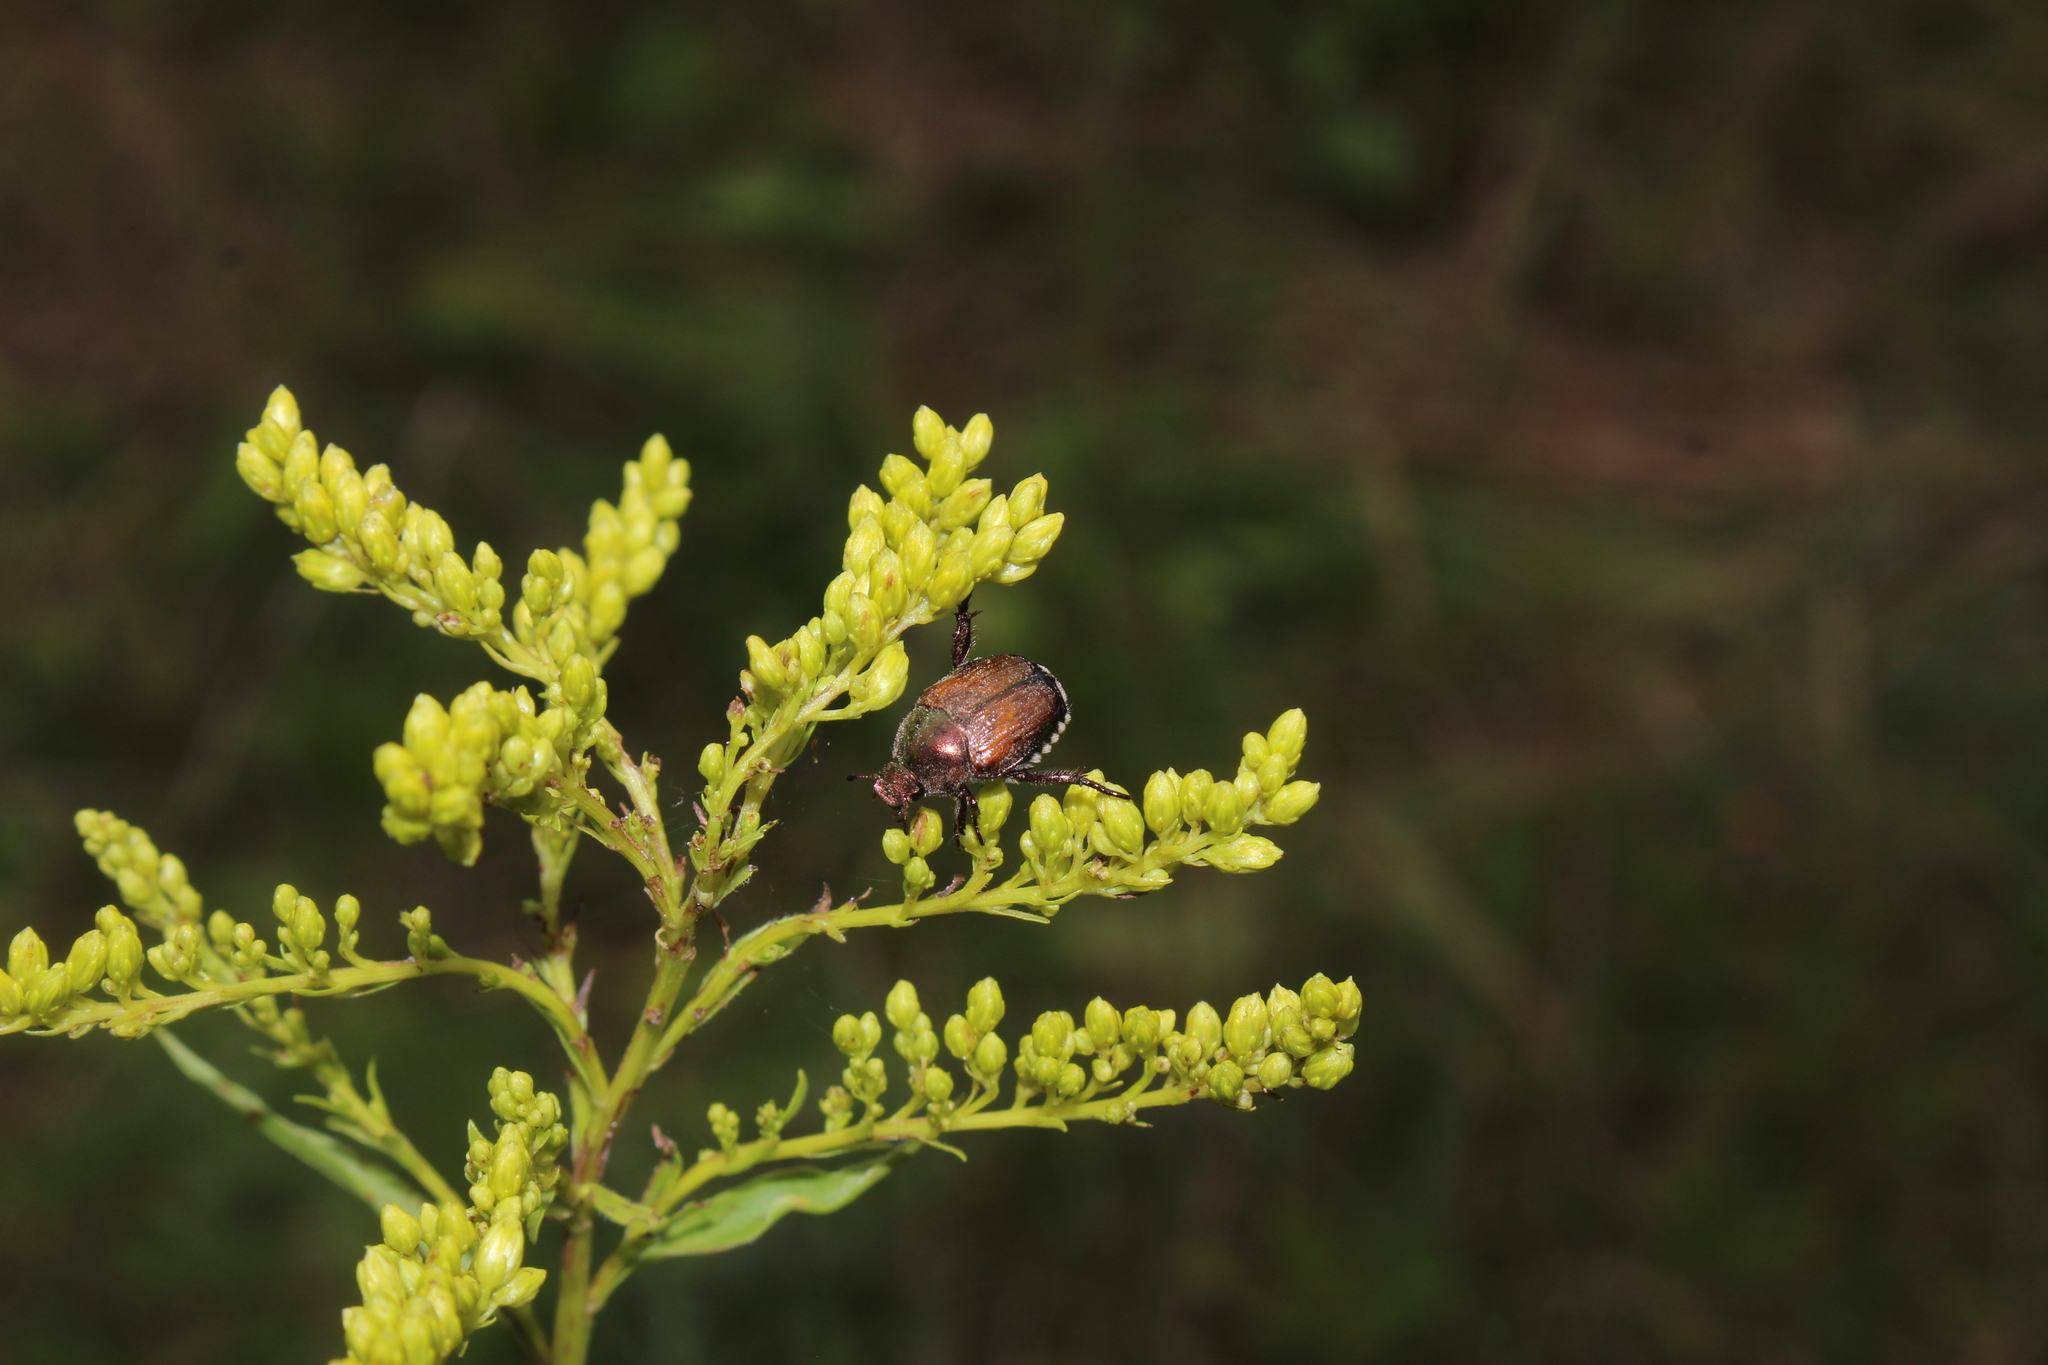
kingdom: Animalia
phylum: Arthropoda
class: Insecta
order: Coleoptera
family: Scarabaeidae
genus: Popillia
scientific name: Popillia japonica
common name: Japanese beetle
